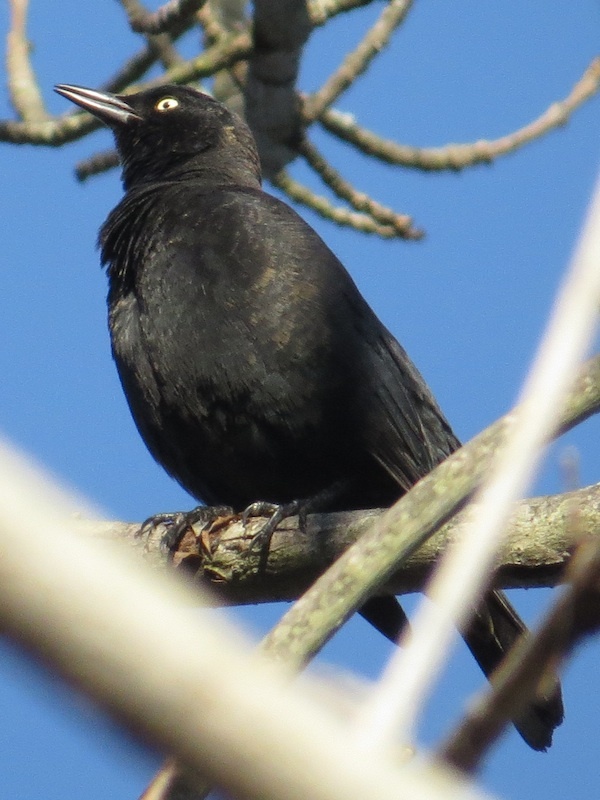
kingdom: Animalia
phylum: Chordata
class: Aves
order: Passeriformes
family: Icteridae
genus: Euphagus
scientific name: Euphagus carolinus
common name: Rusty blackbird
